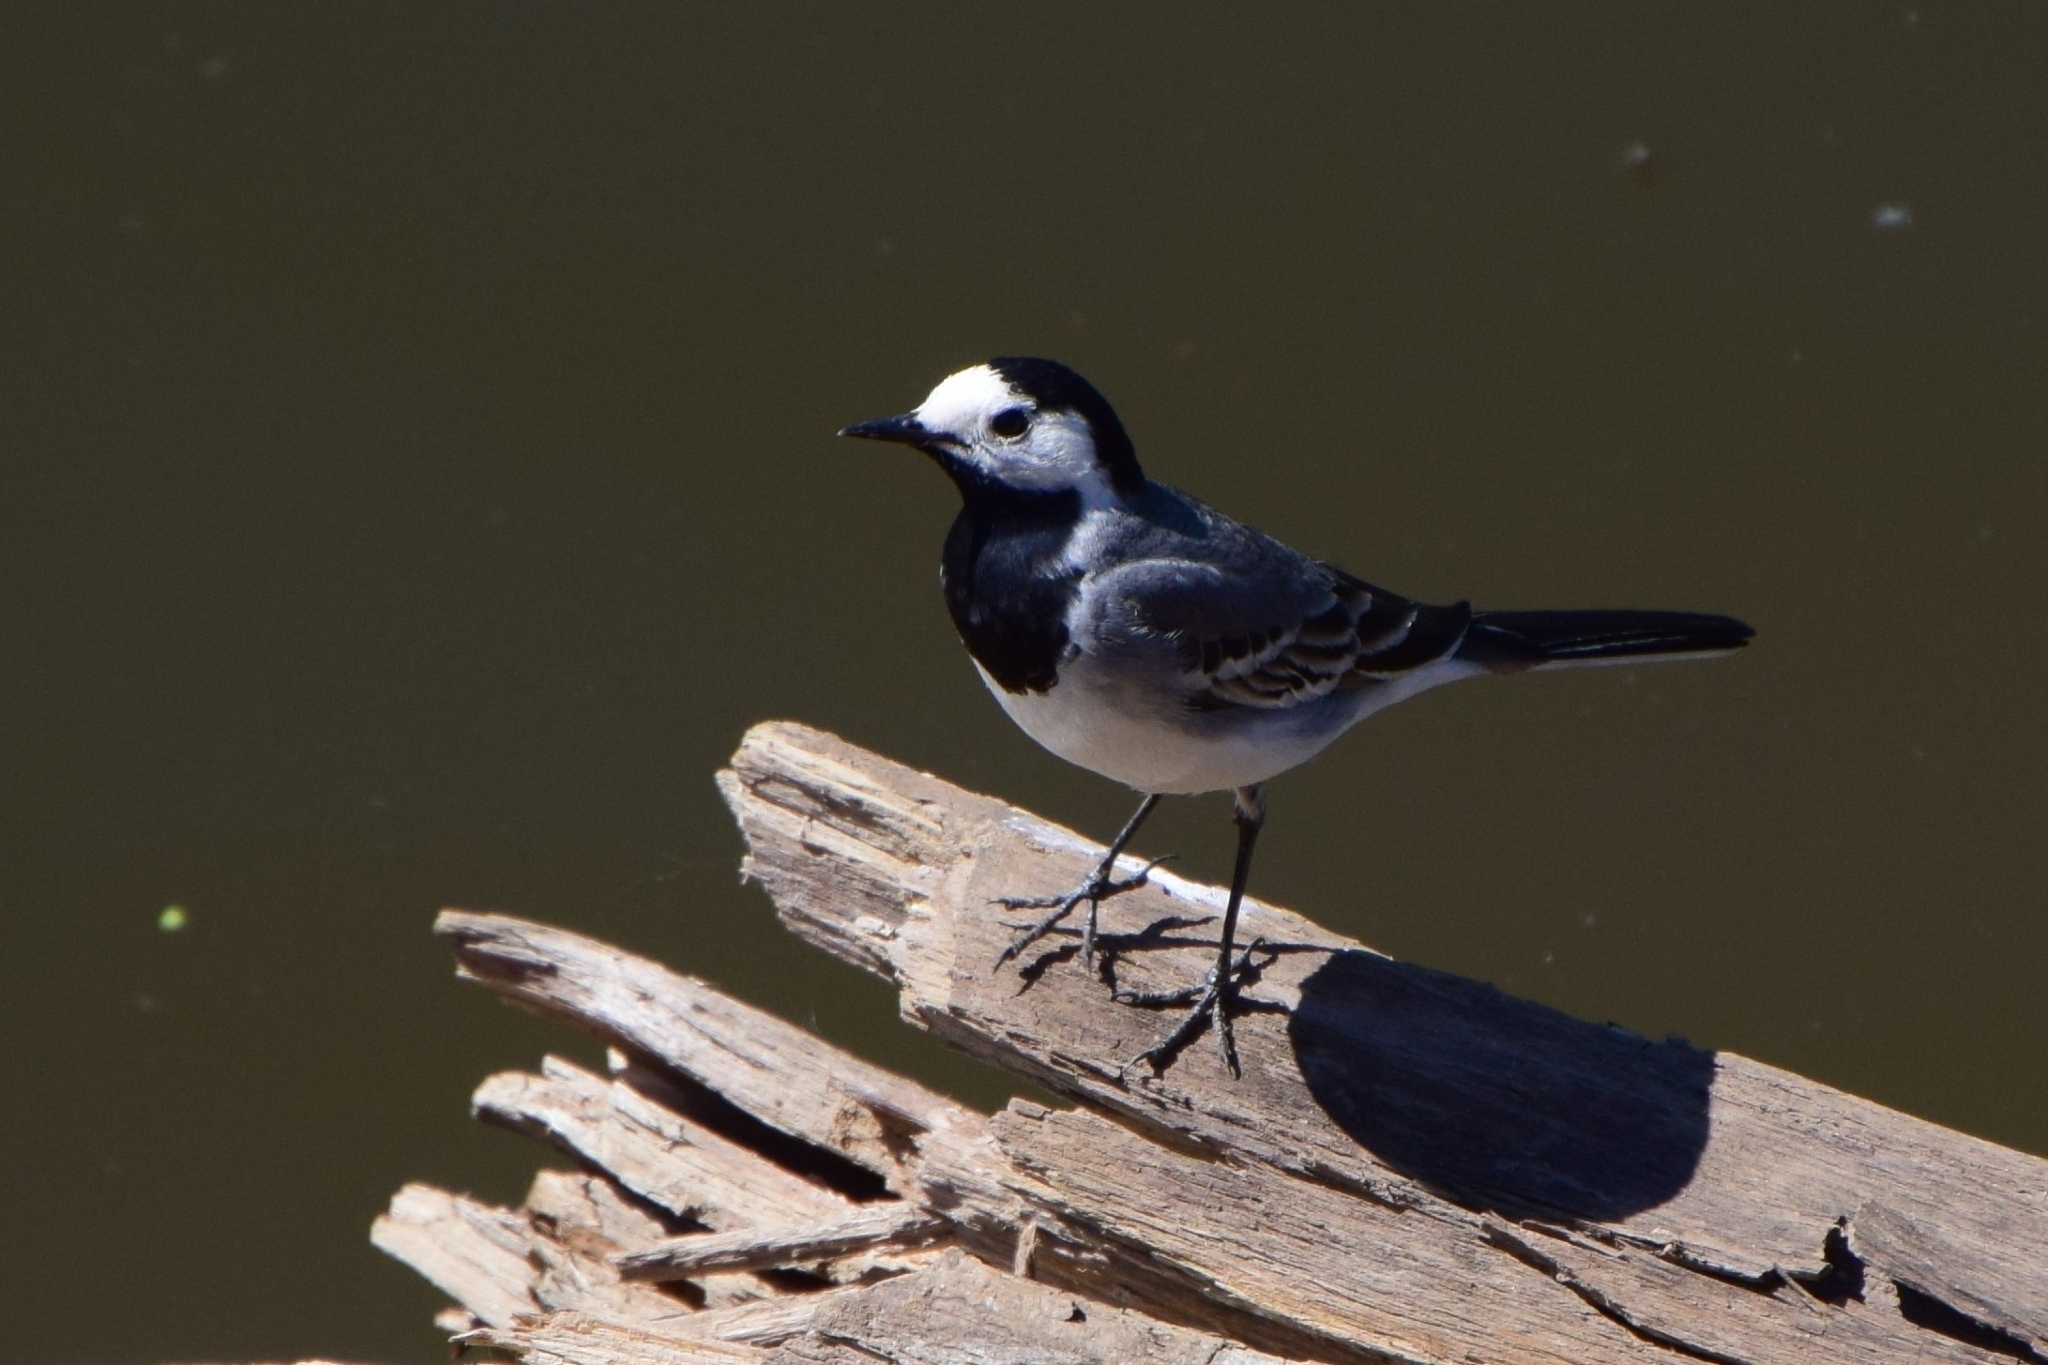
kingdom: Animalia
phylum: Chordata
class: Aves
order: Passeriformes
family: Motacillidae
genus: Motacilla
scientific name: Motacilla alba
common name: White wagtail
